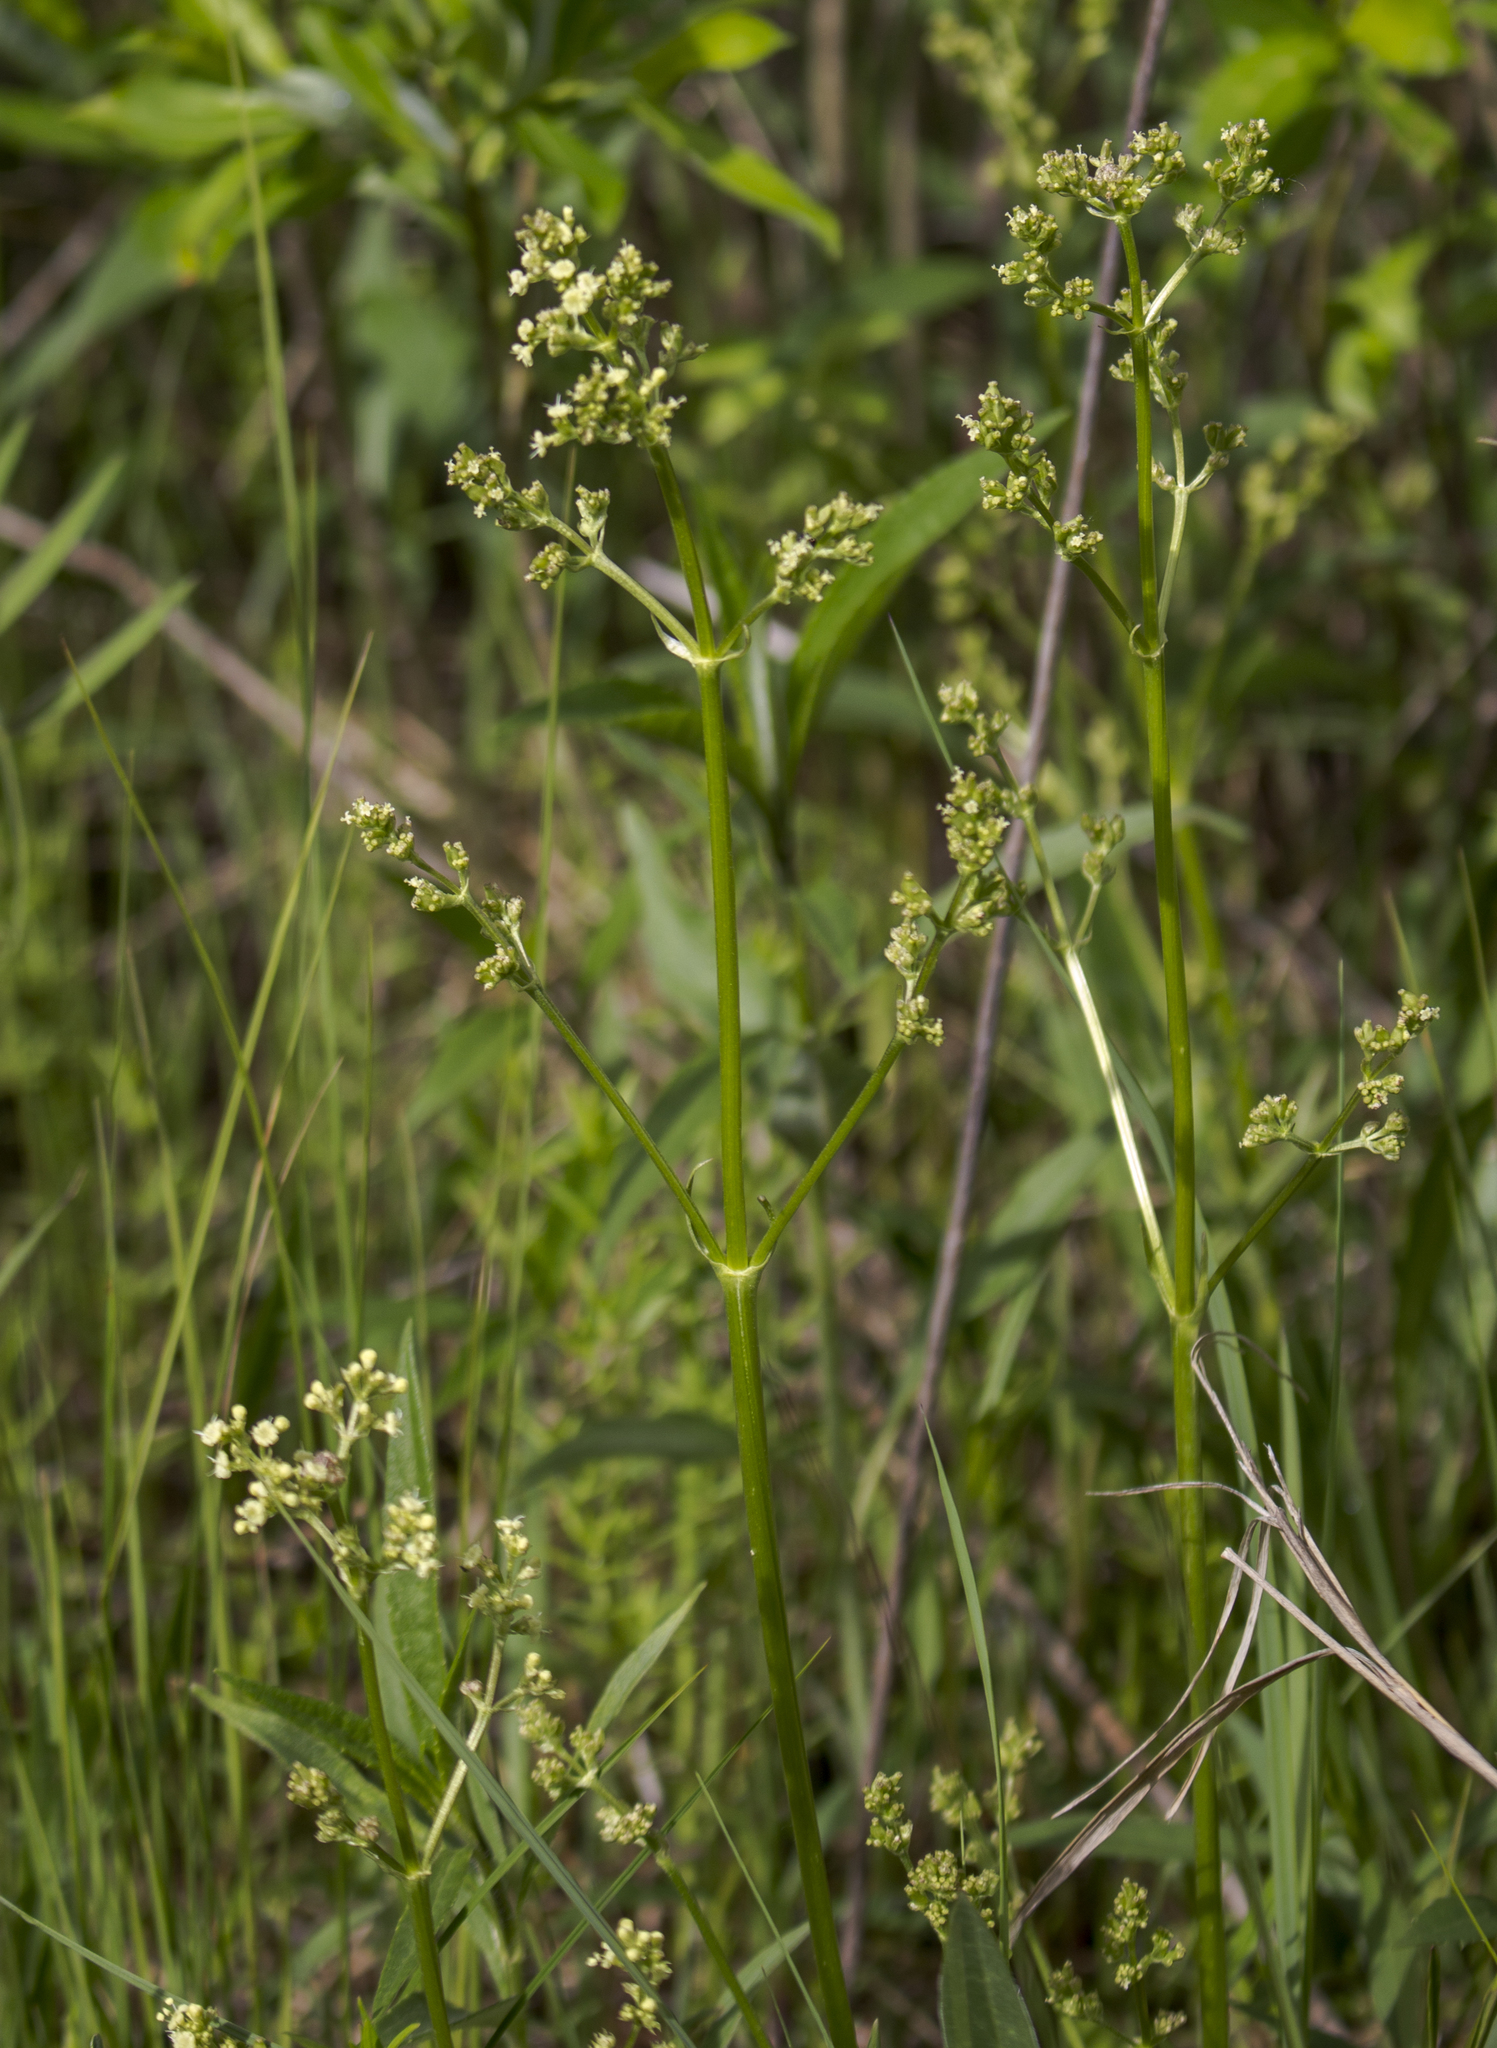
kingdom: Plantae
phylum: Tracheophyta
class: Magnoliopsida
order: Dipsacales
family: Caprifoliaceae
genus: Valeriana
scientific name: Valeriana edulis
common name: Taproot valerian
